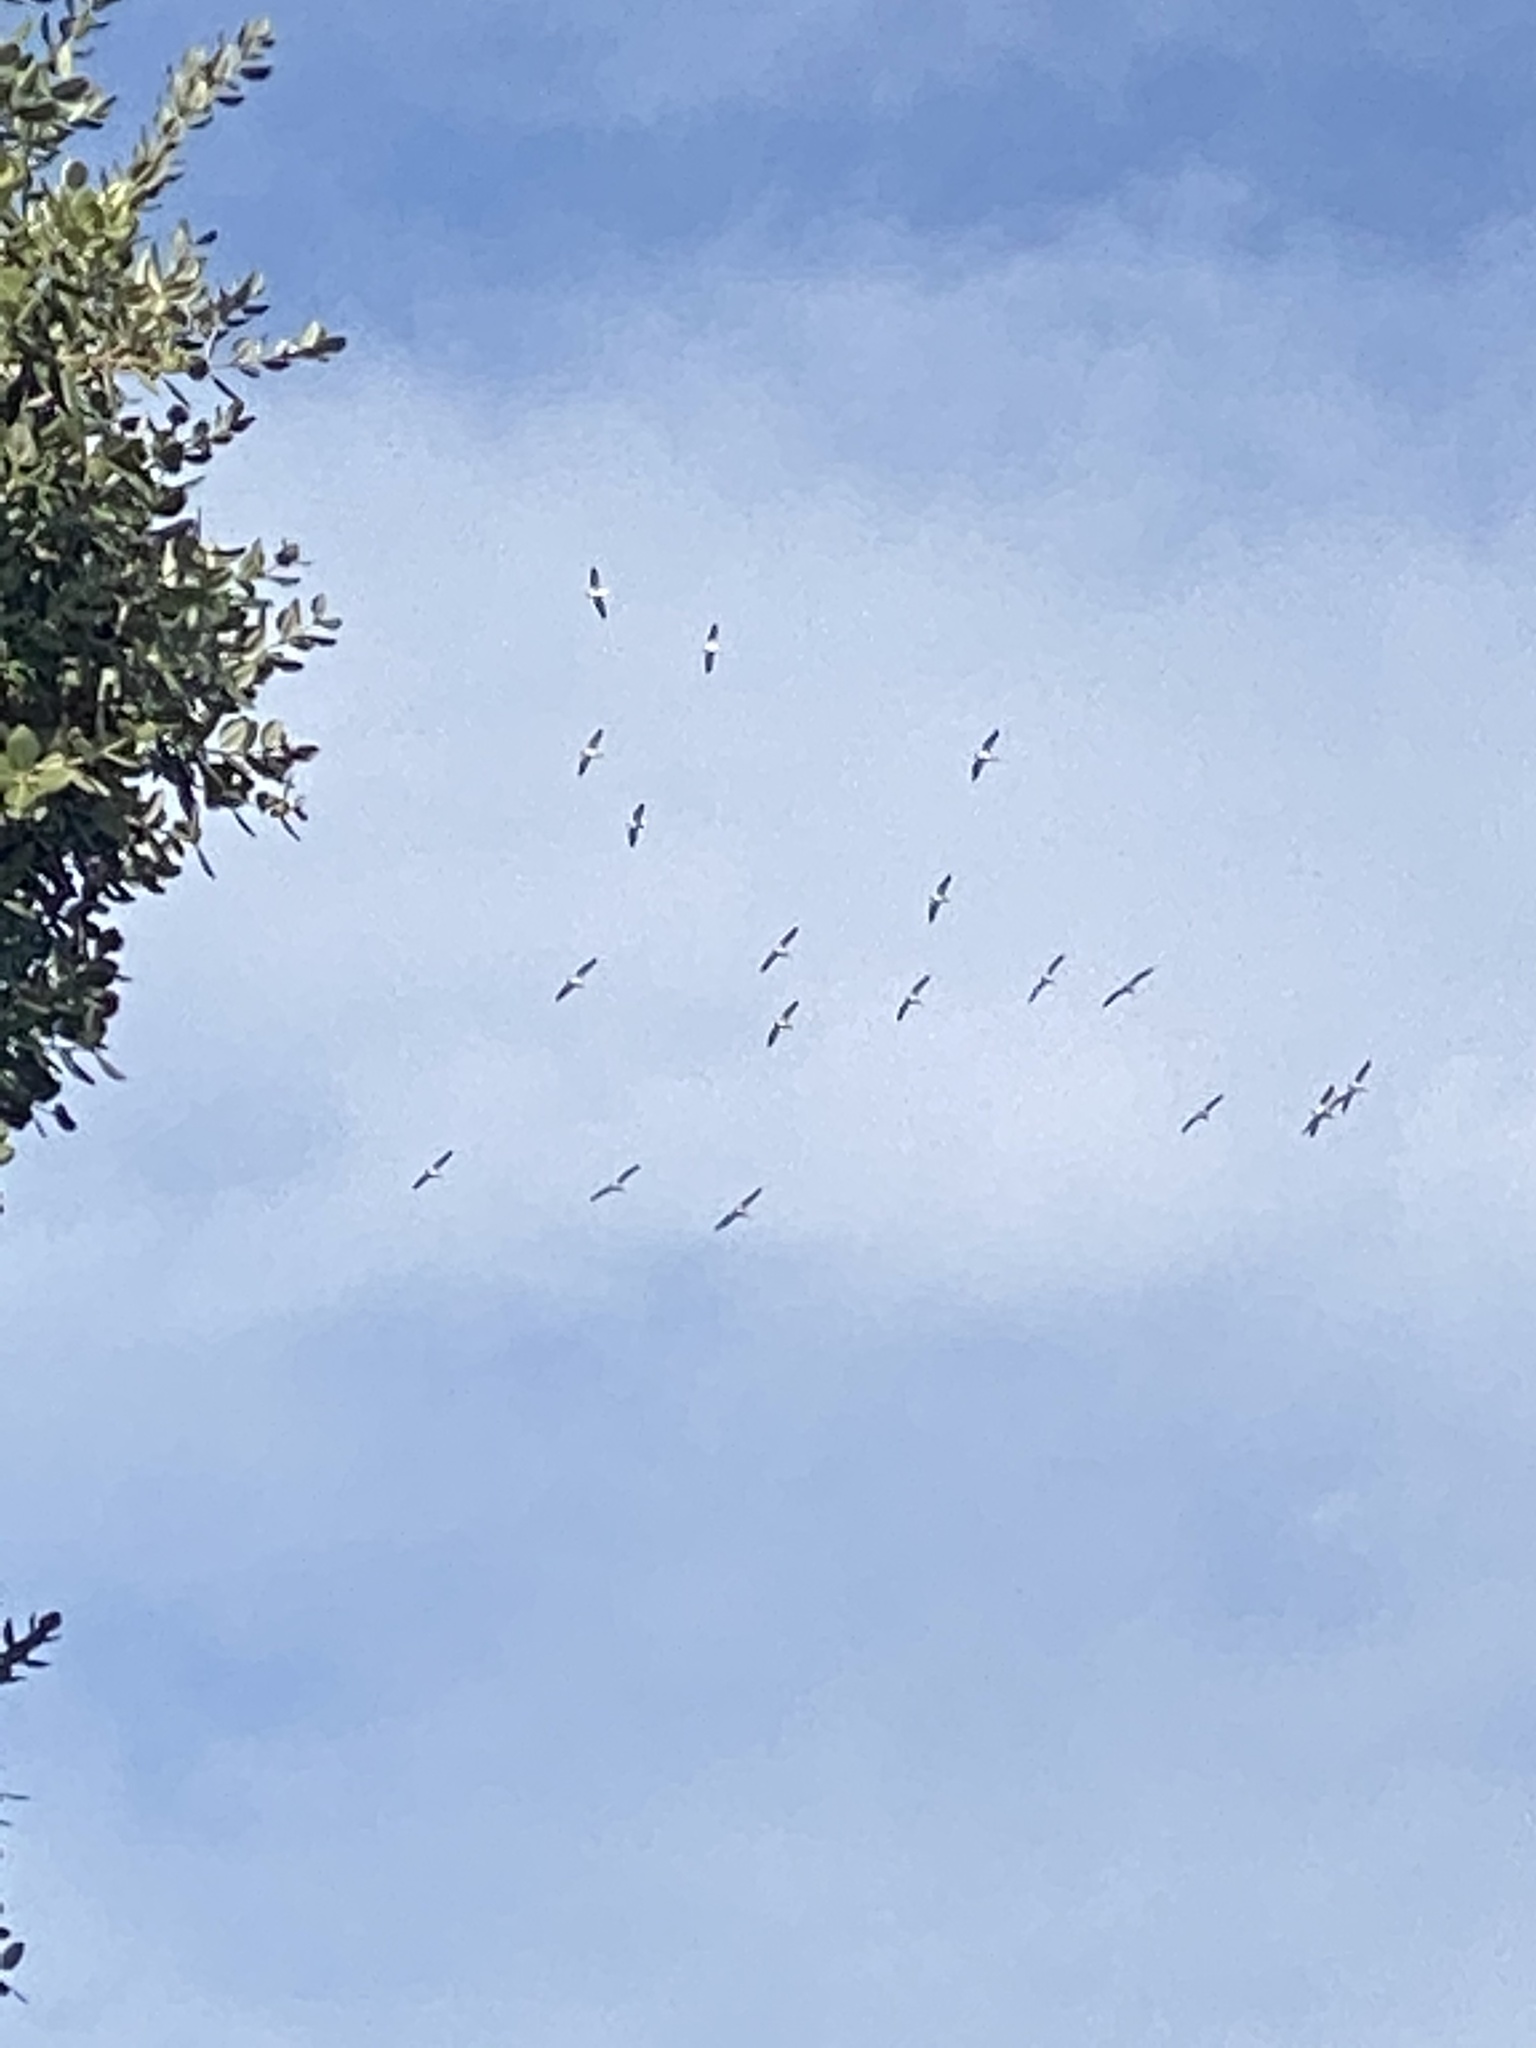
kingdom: Animalia
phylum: Chordata
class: Aves
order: Pelecaniformes
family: Pelecanidae
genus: Pelecanus
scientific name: Pelecanus occidentalis
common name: Brown pelican
